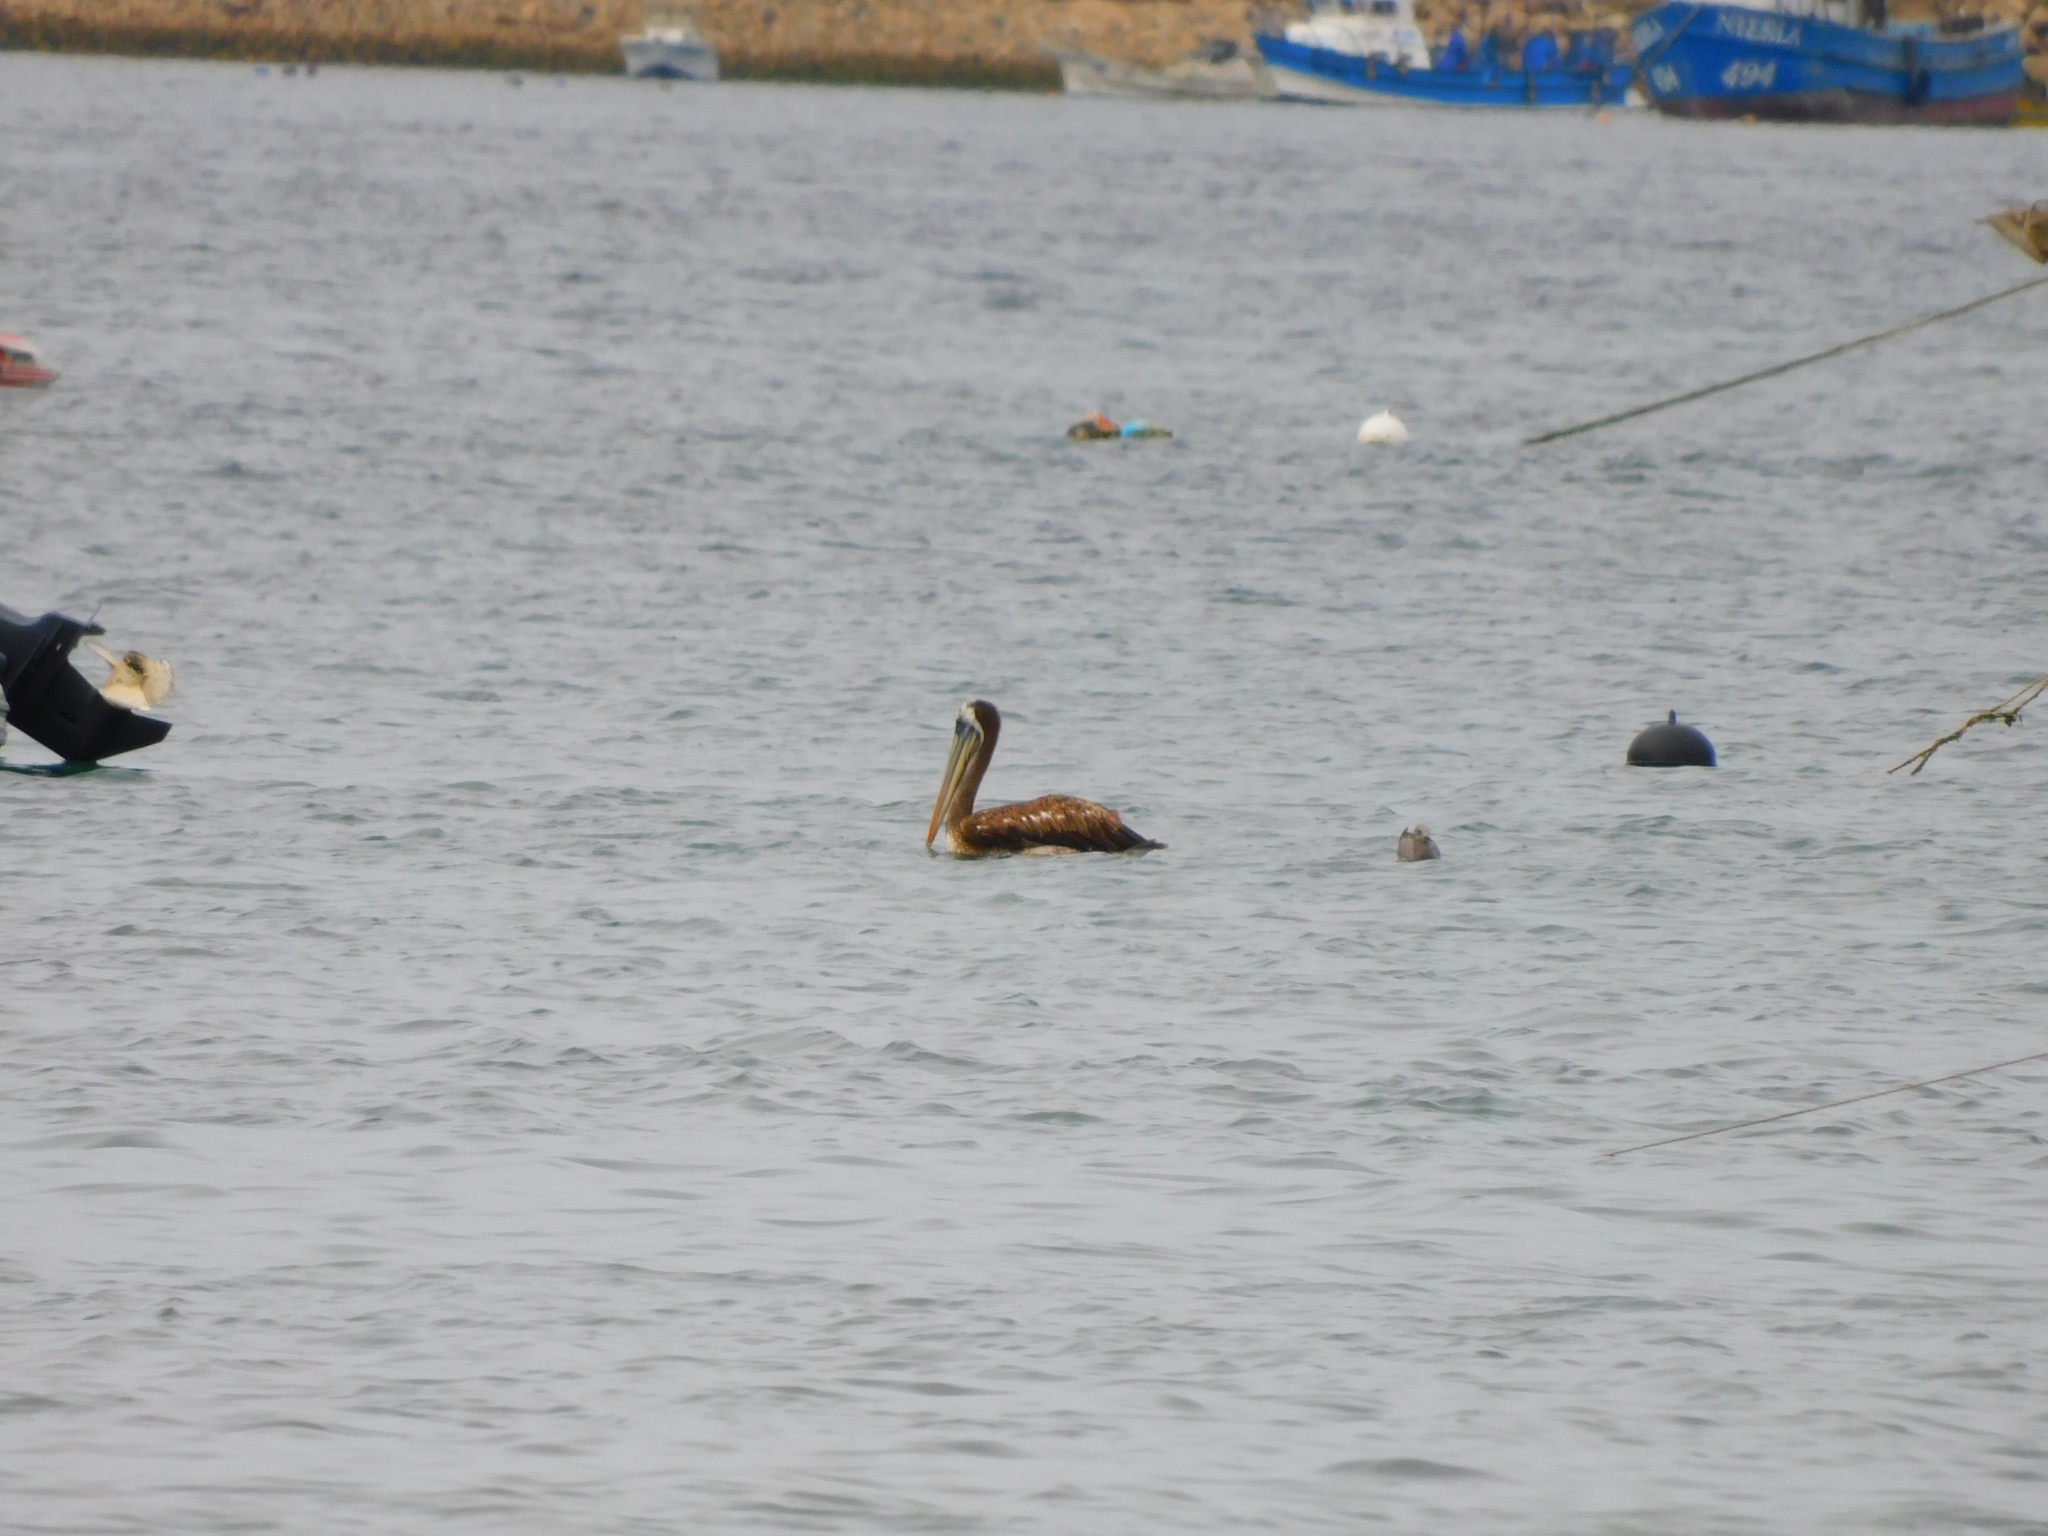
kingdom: Animalia
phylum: Chordata
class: Aves
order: Pelecaniformes
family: Pelecanidae
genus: Pelecanus
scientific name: Pelecanus thagus
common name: Peruvian pelican
